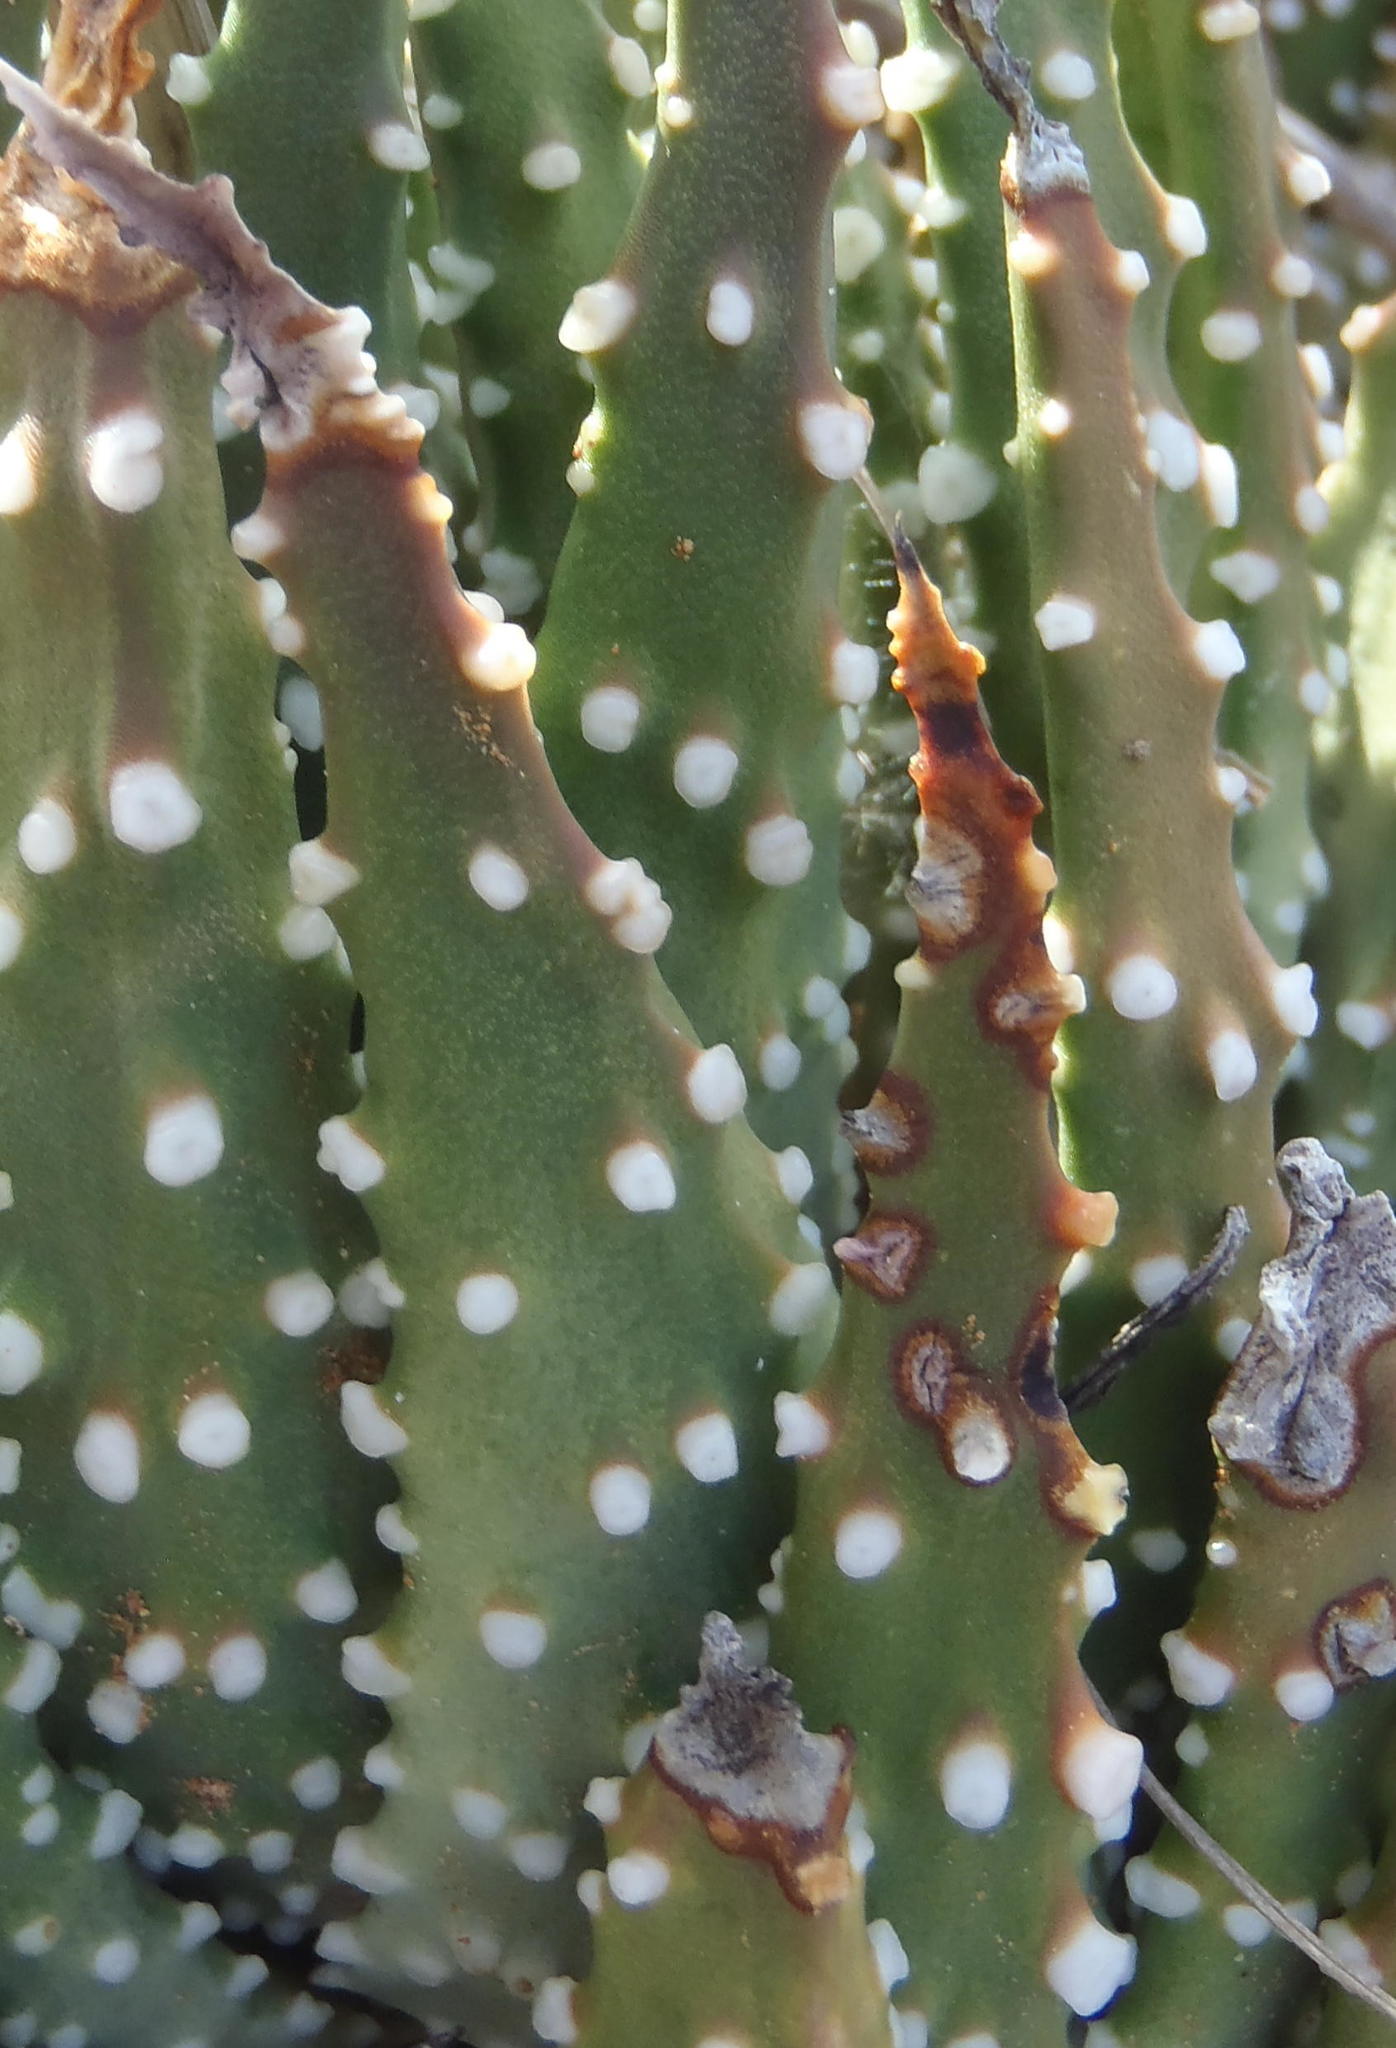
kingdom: Plantae
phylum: Tracheophyta
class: Liliopsida
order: Asparagales
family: Asphodelaceae
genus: Tulista
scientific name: Tulista pumila
